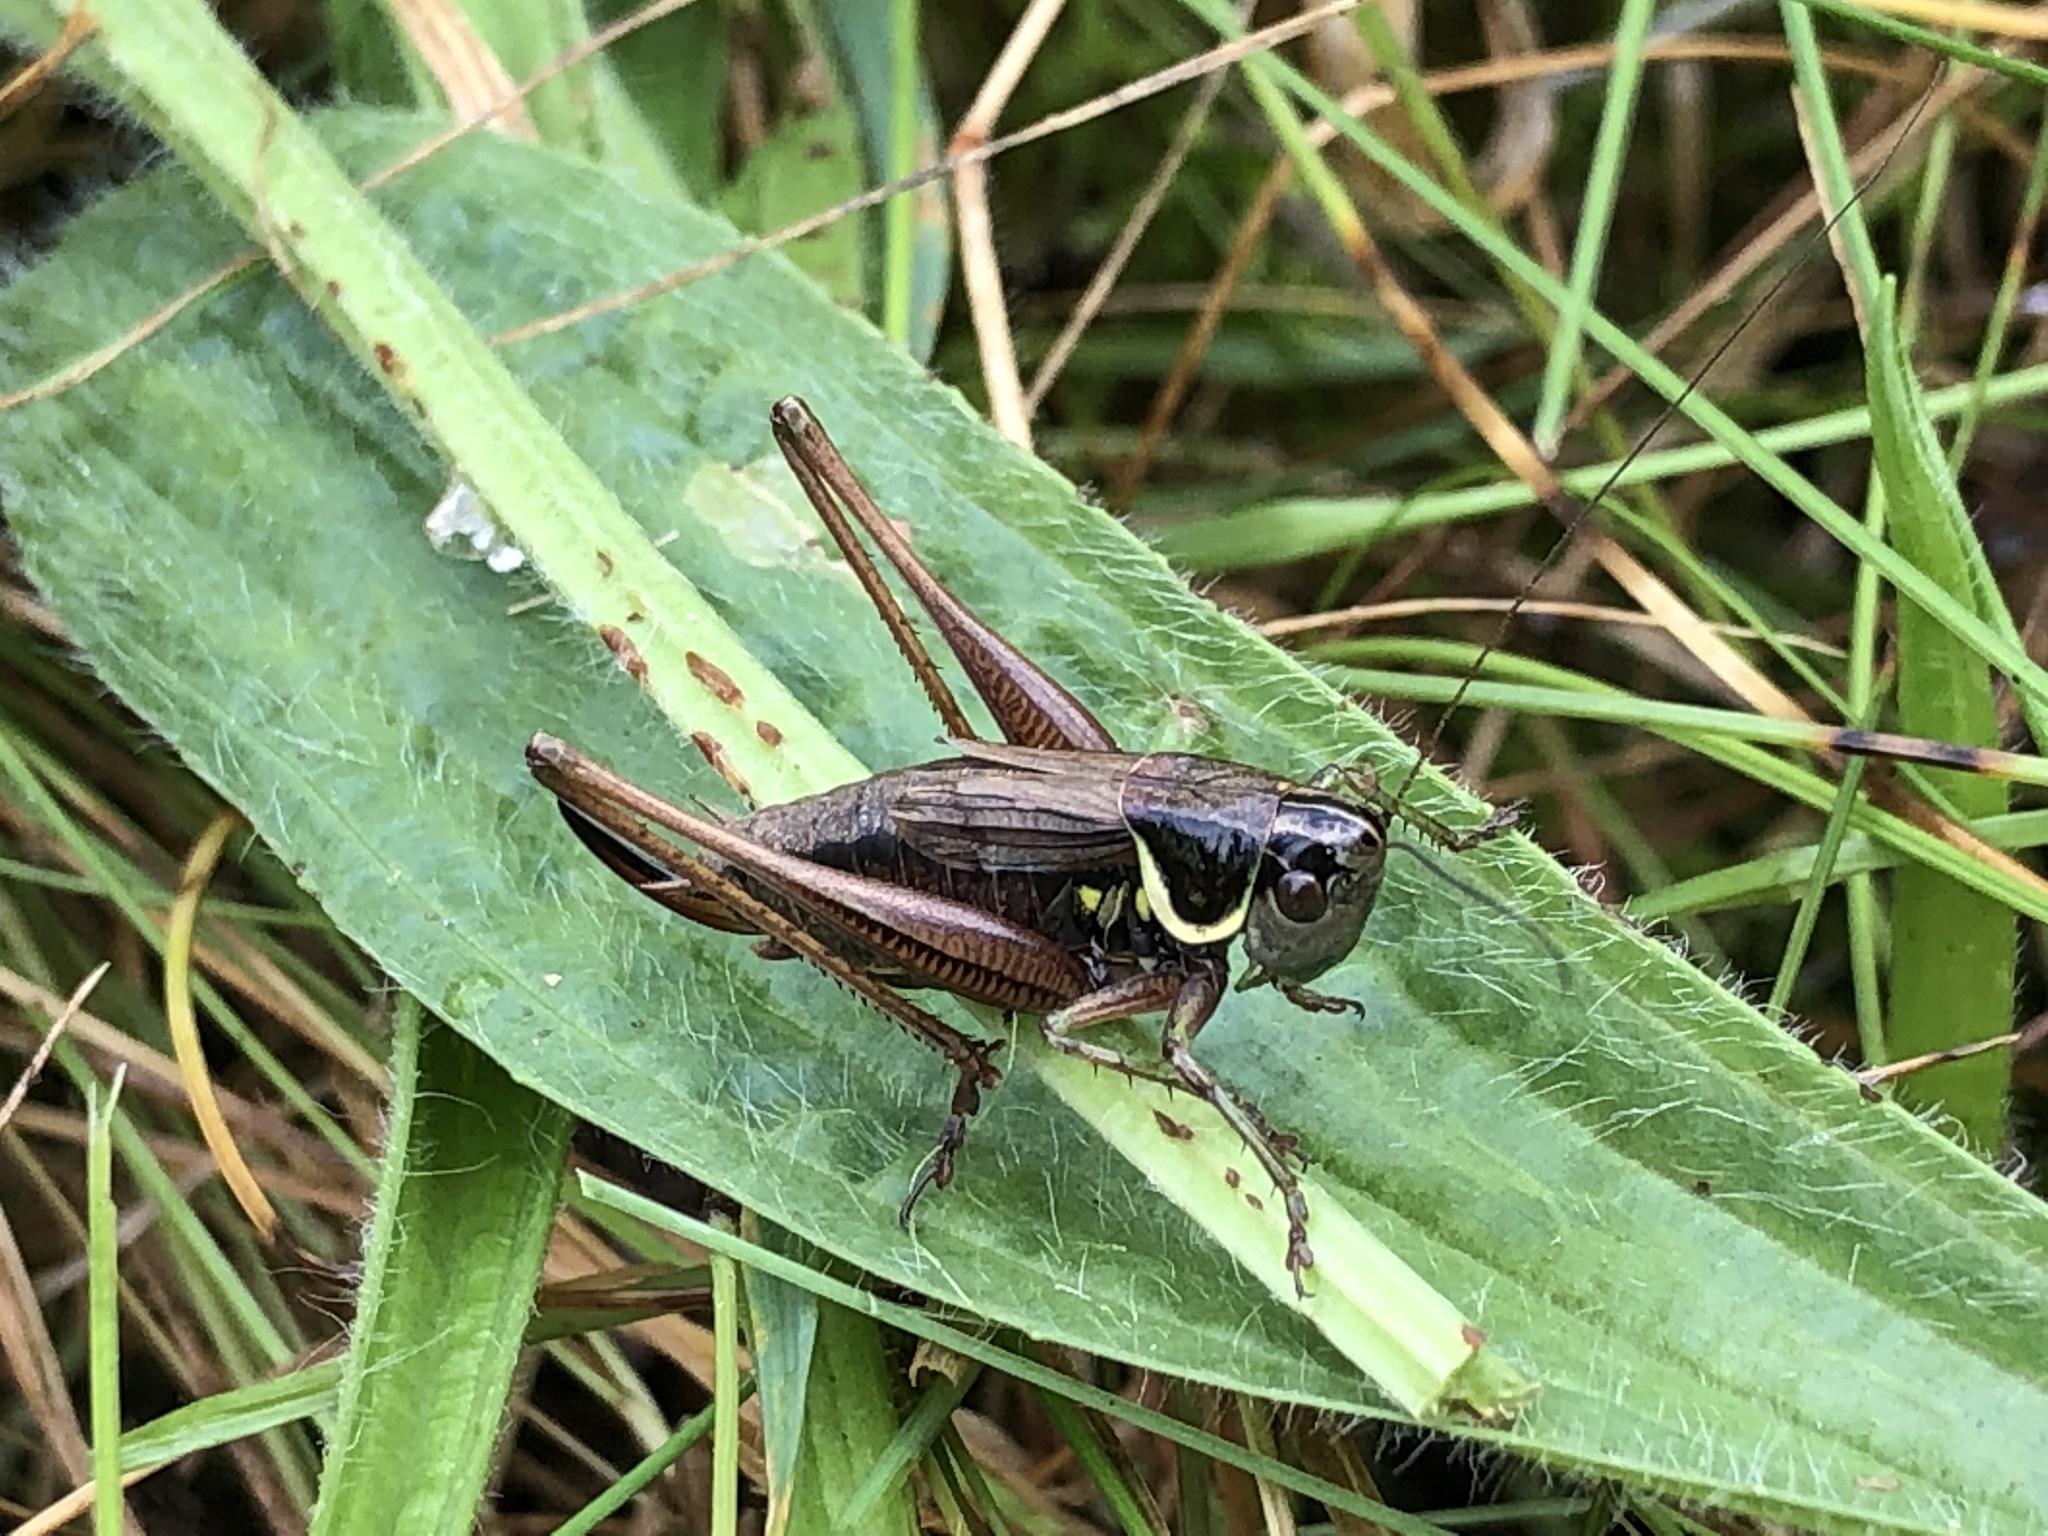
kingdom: Animalia
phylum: Arthropoda
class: Insecta
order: Orthoptera
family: Tettigoniidae
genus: Roeseliana
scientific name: Roeseliana roeselii
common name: Roesel's bush cricket
